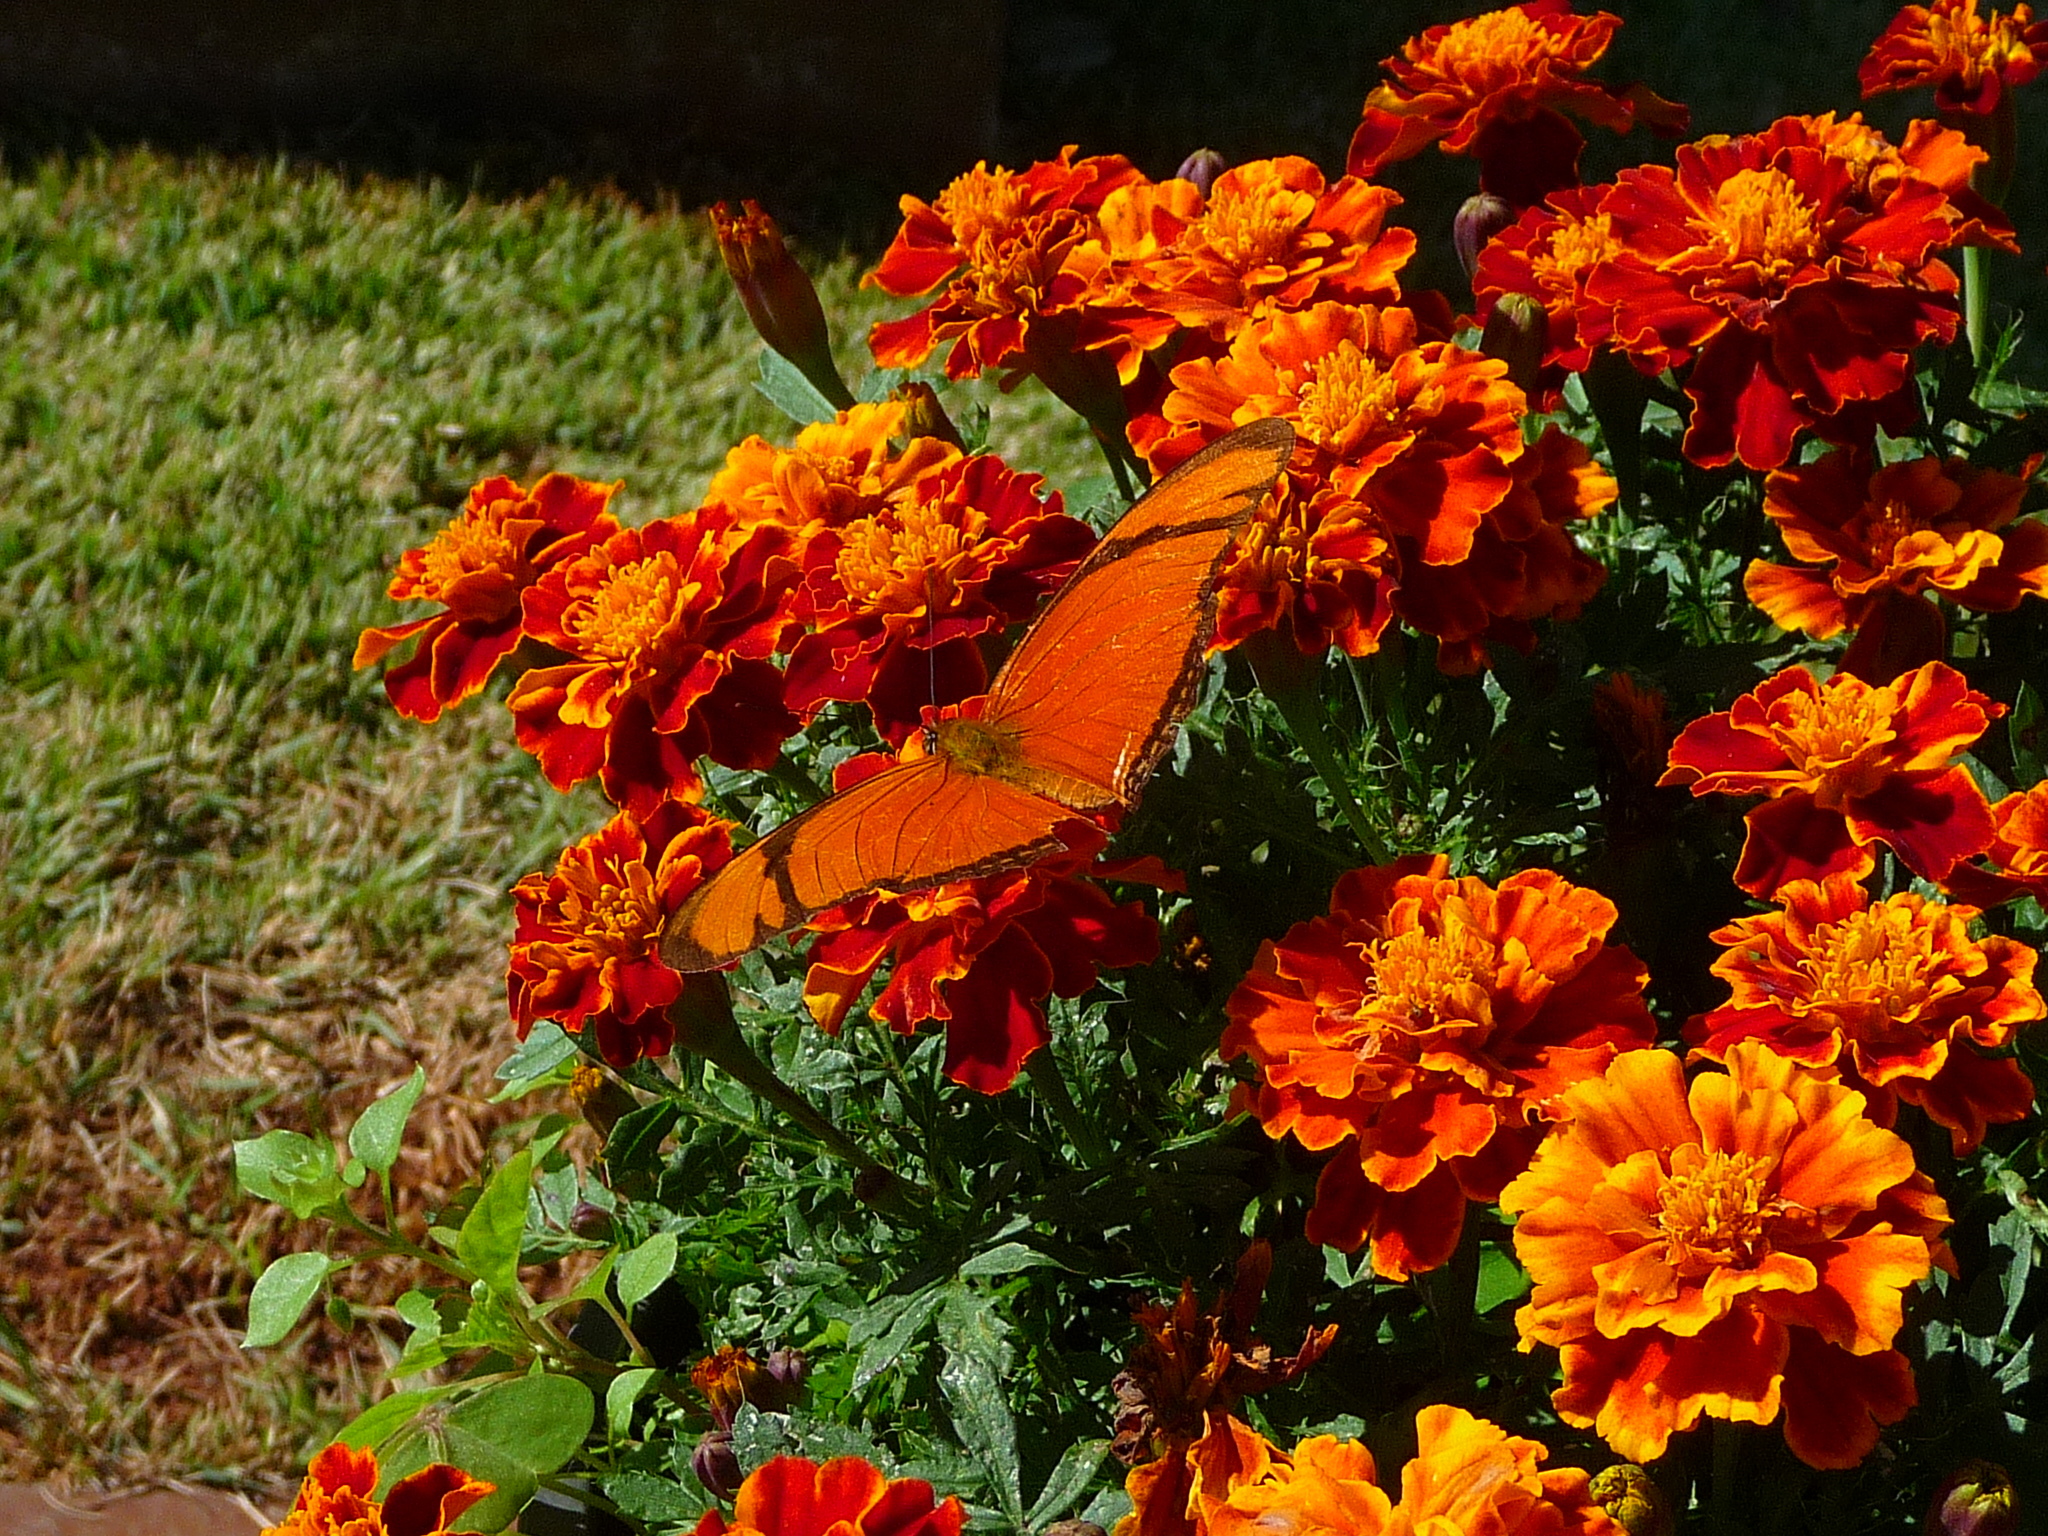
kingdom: Animalia
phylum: Arthropoda
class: Insecta
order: Lepidoptera
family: Nymphalidae
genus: Dryas
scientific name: Dryas iulia
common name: Flambeau
